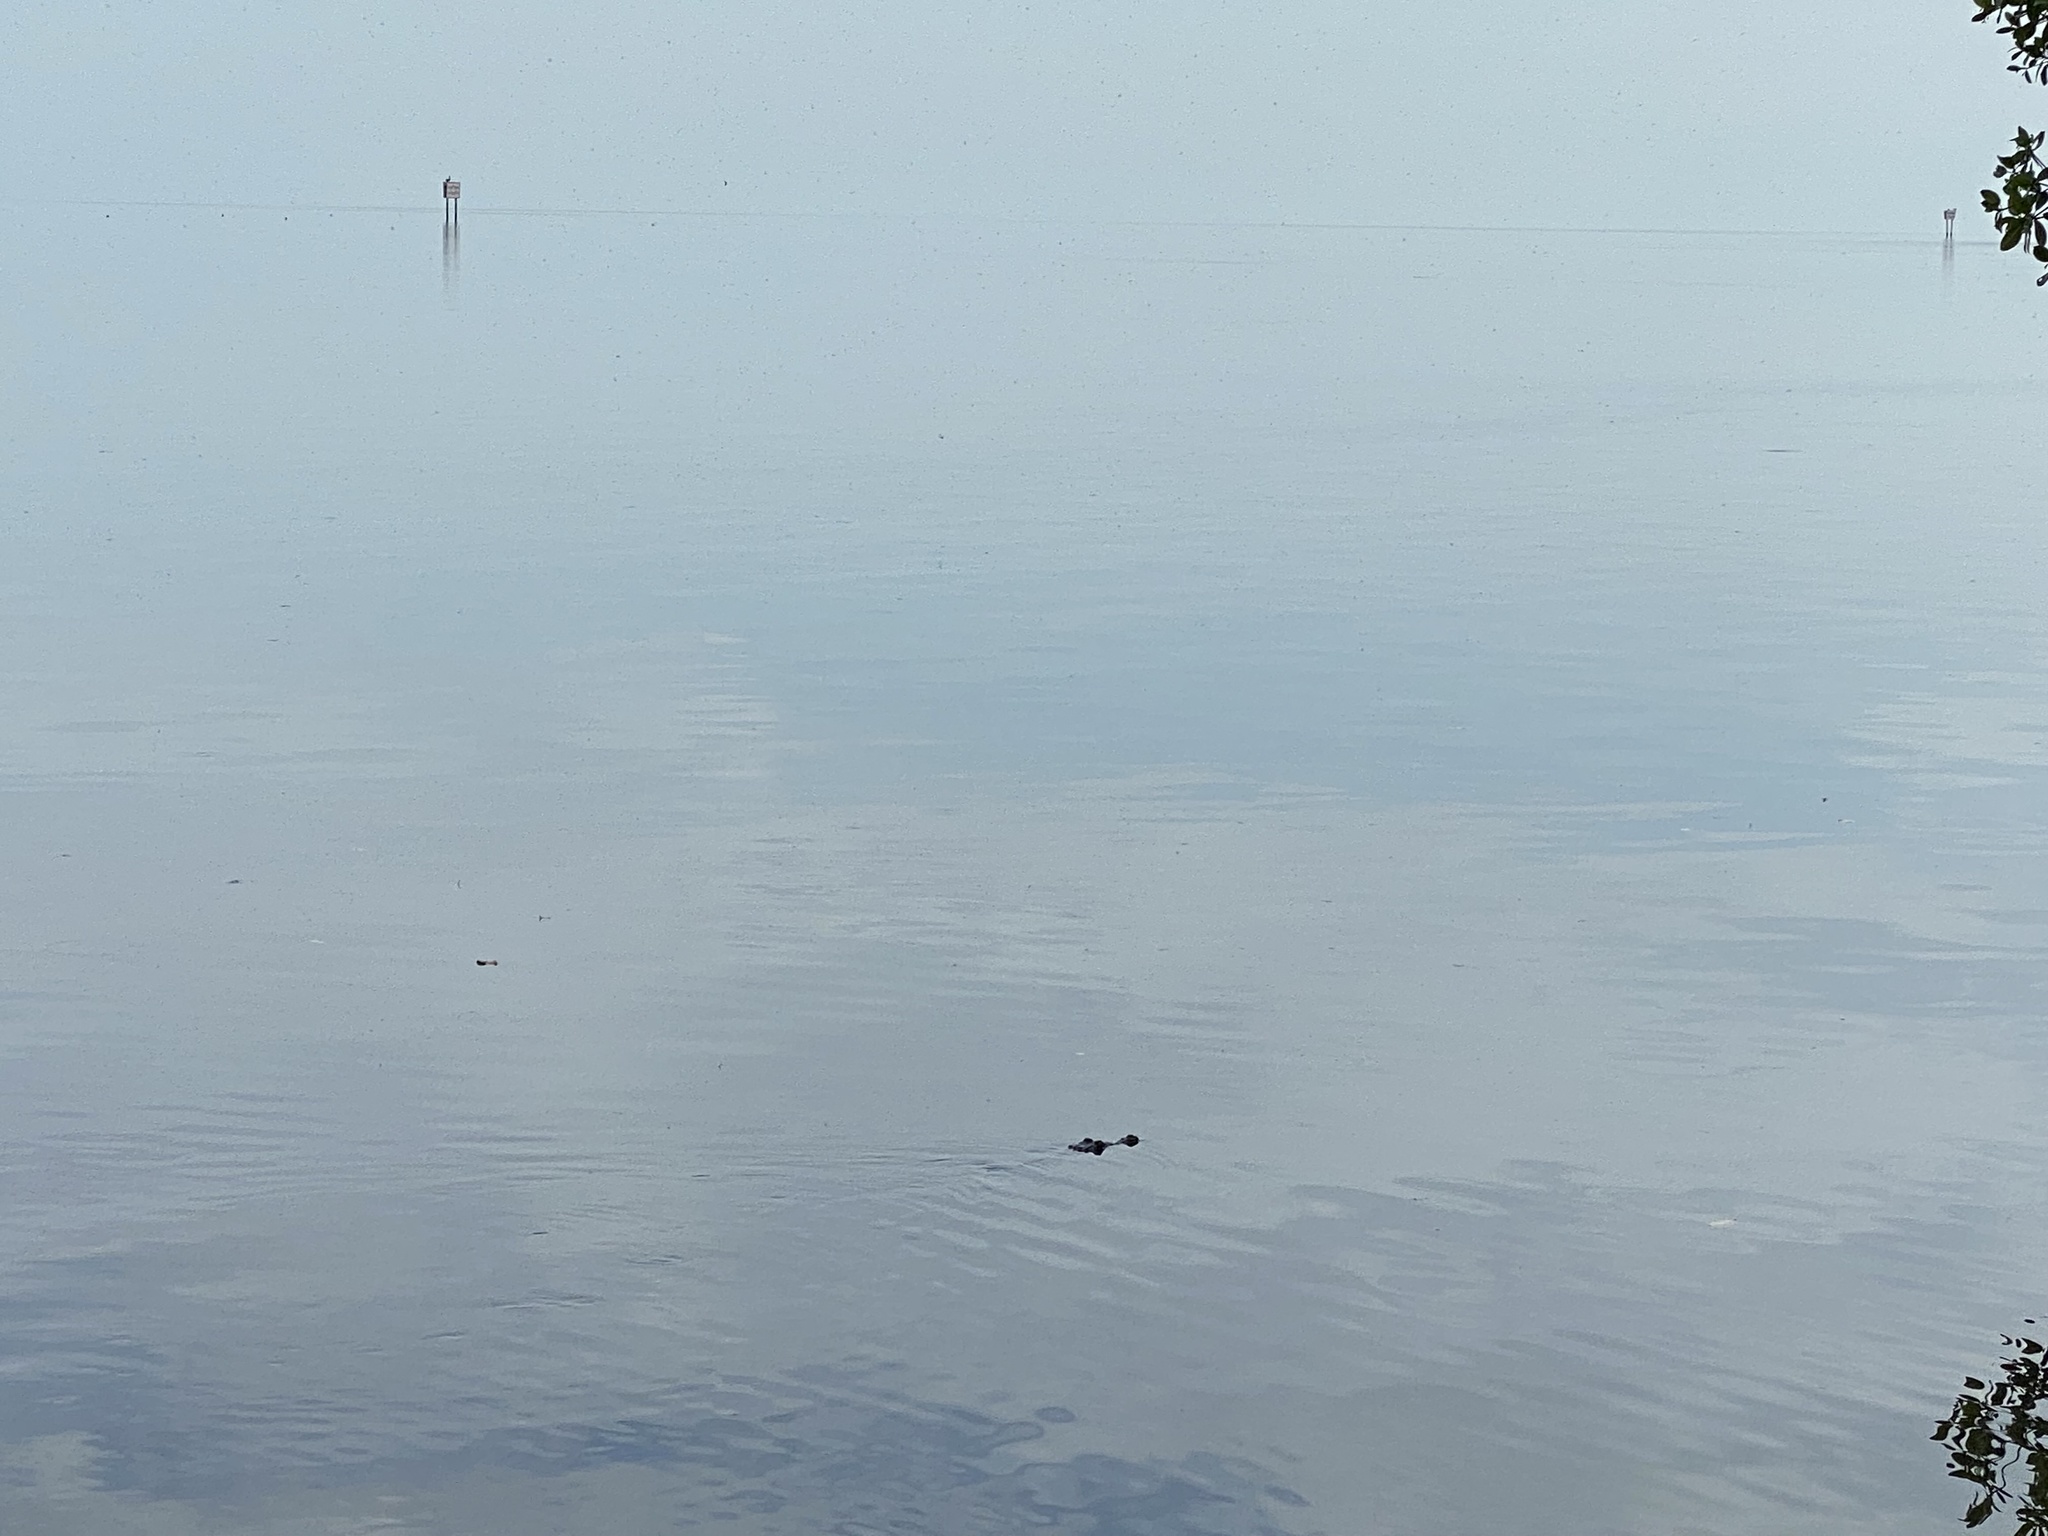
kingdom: Animalia
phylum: Chordata
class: Crocodylia
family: Crocodylidae
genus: Crocodylus
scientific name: Crocodylus acutus
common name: American crocodile
